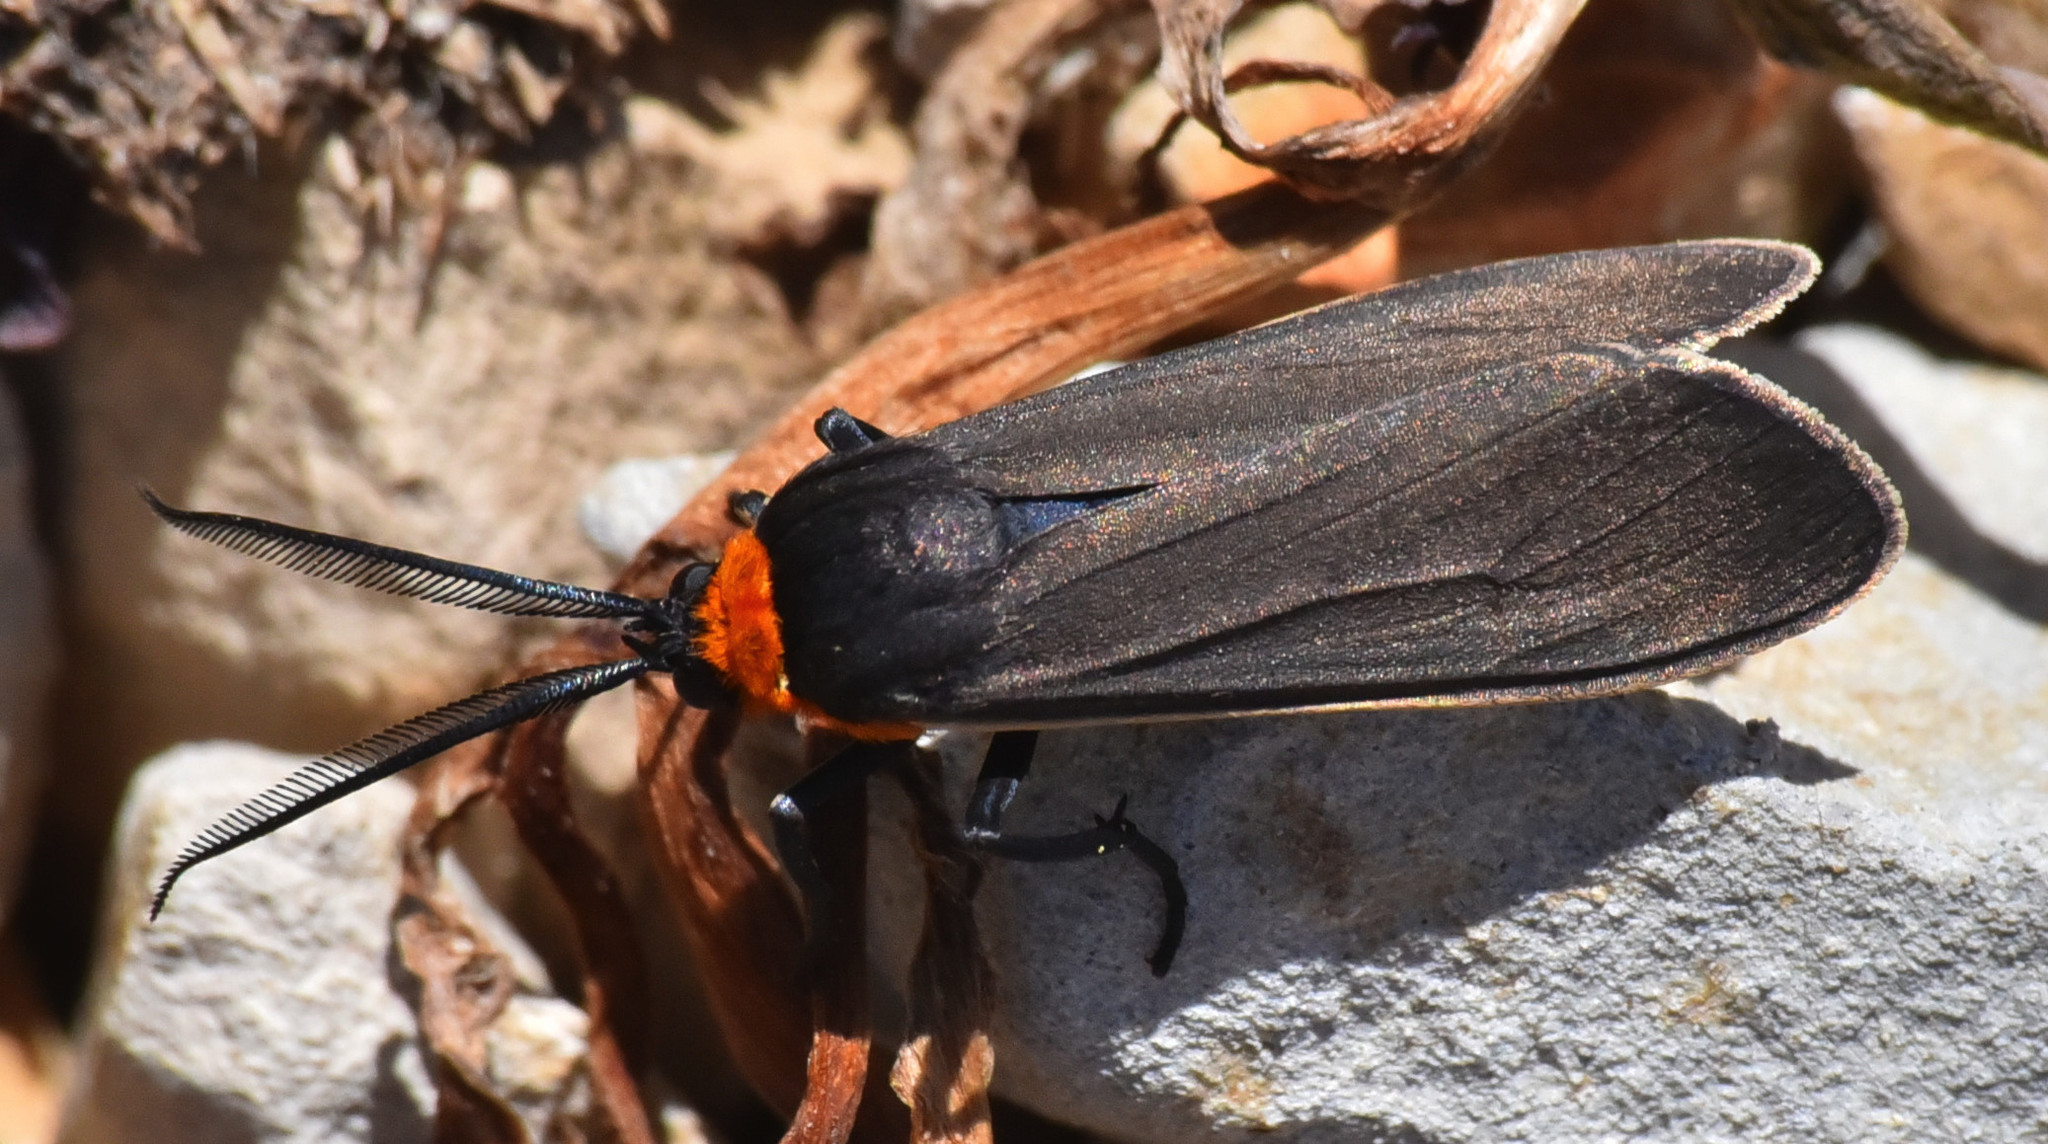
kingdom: Animalia
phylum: Arthropoda
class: Insecta
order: Lepidoptera
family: Erebidae
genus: Cisseps
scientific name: Cisseps fulvicollis
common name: Yellow-collared scape moth
